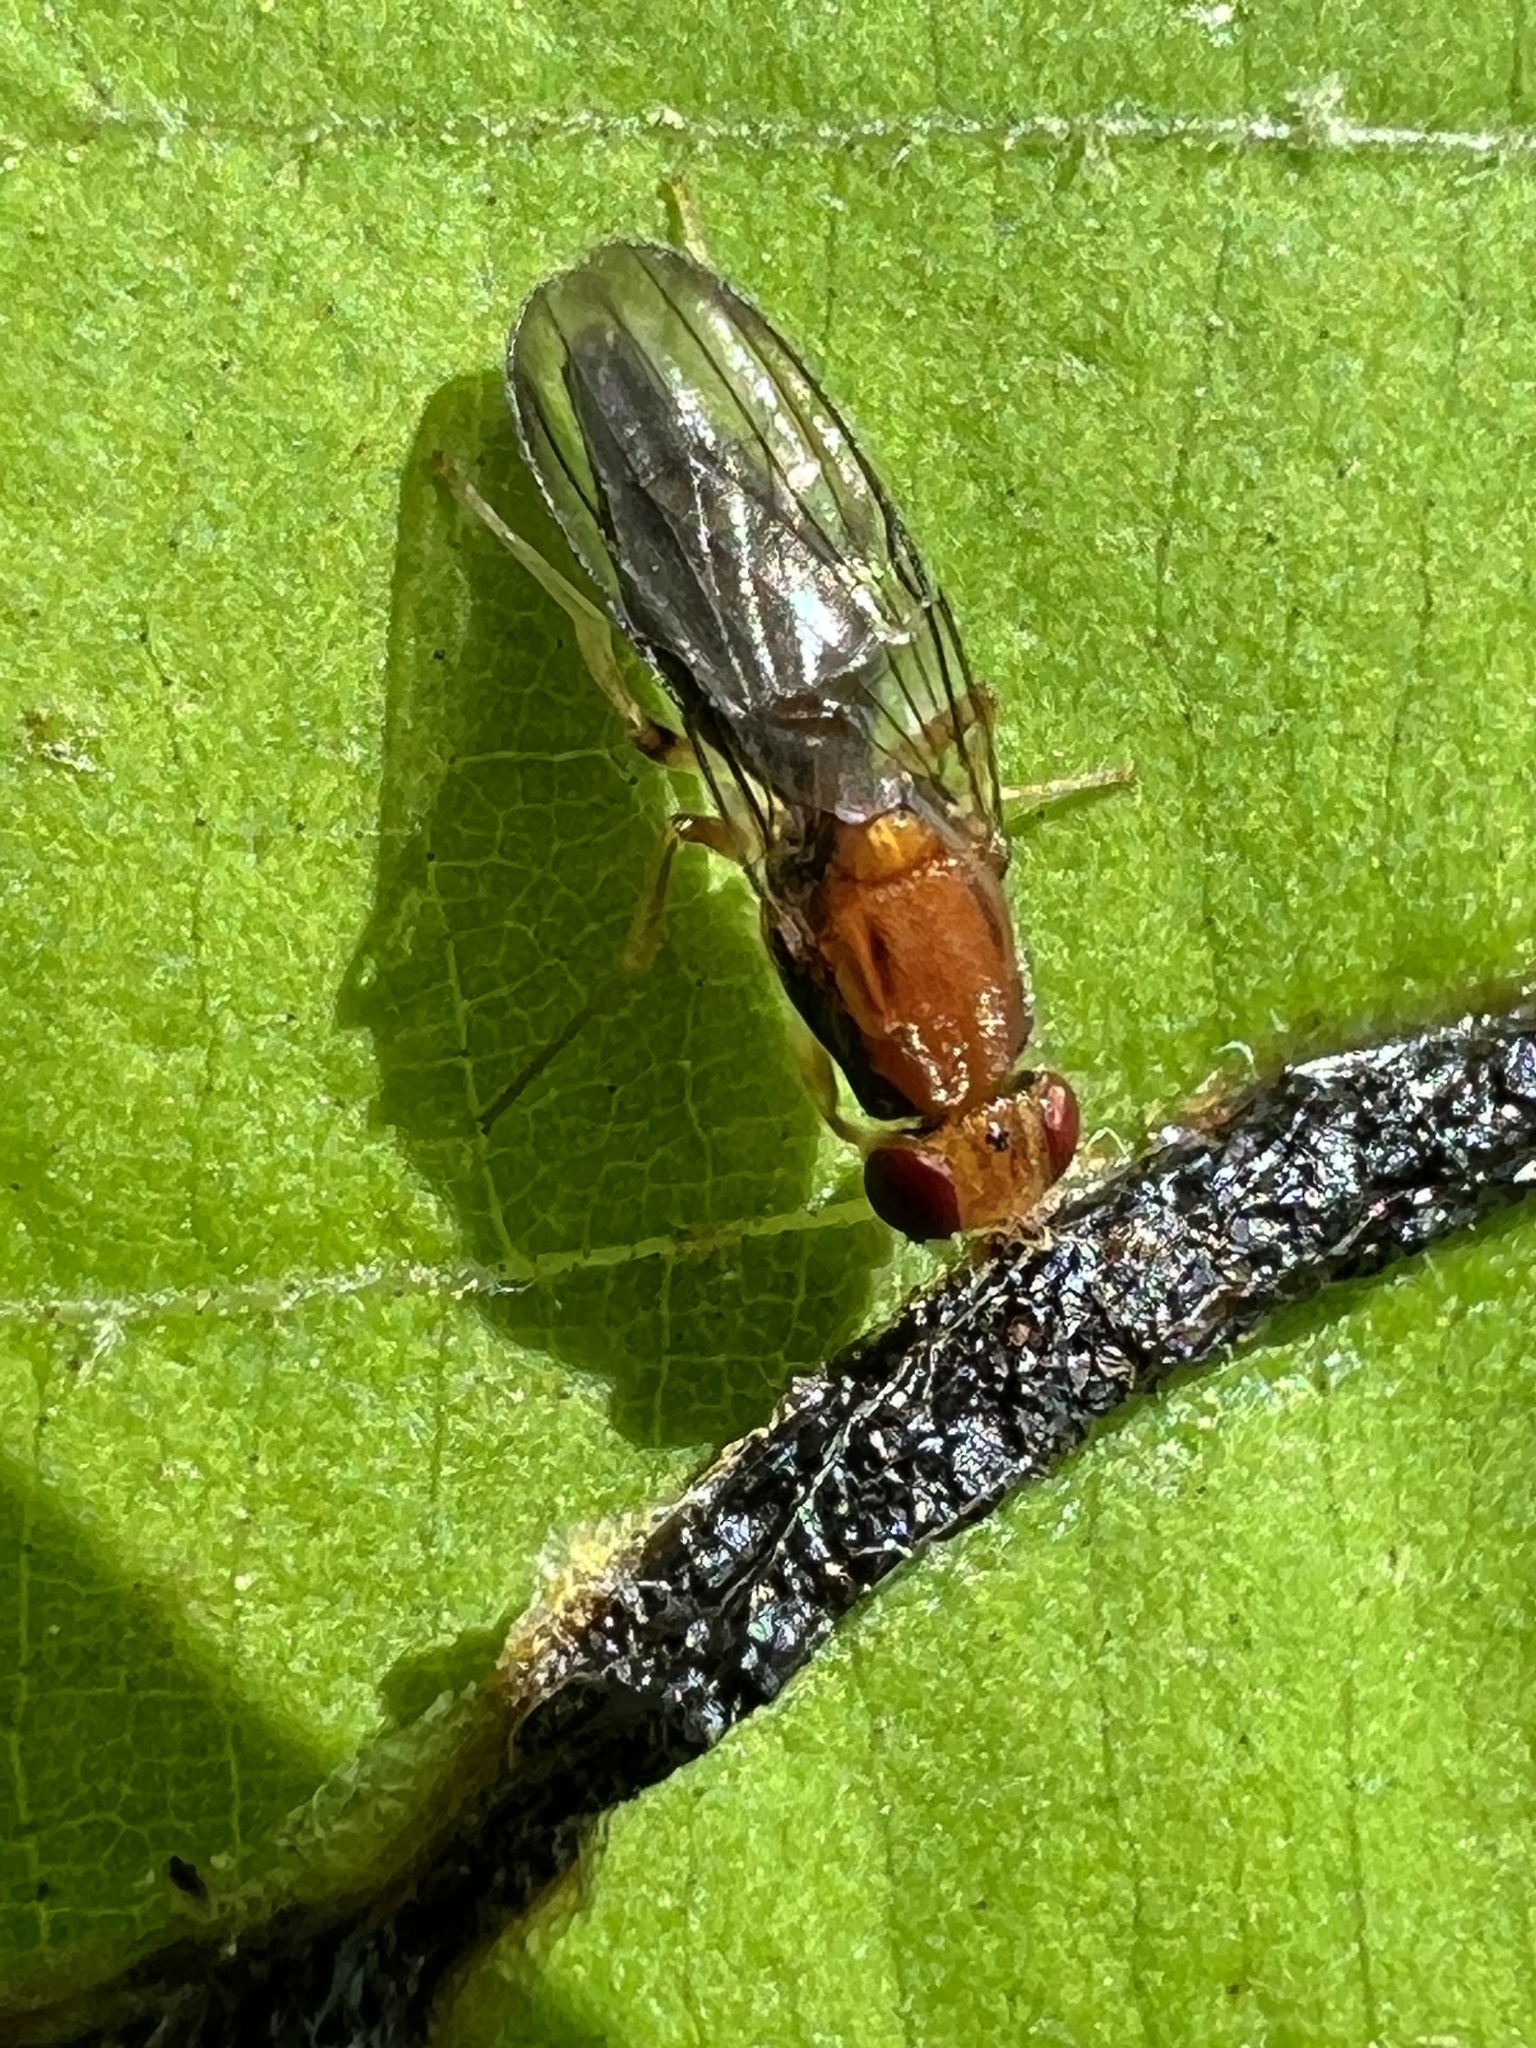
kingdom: Animalia
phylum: Arthropoda
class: Insecta
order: Diptera
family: Psilidae
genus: Chyliza
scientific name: Chyliza apicalis
